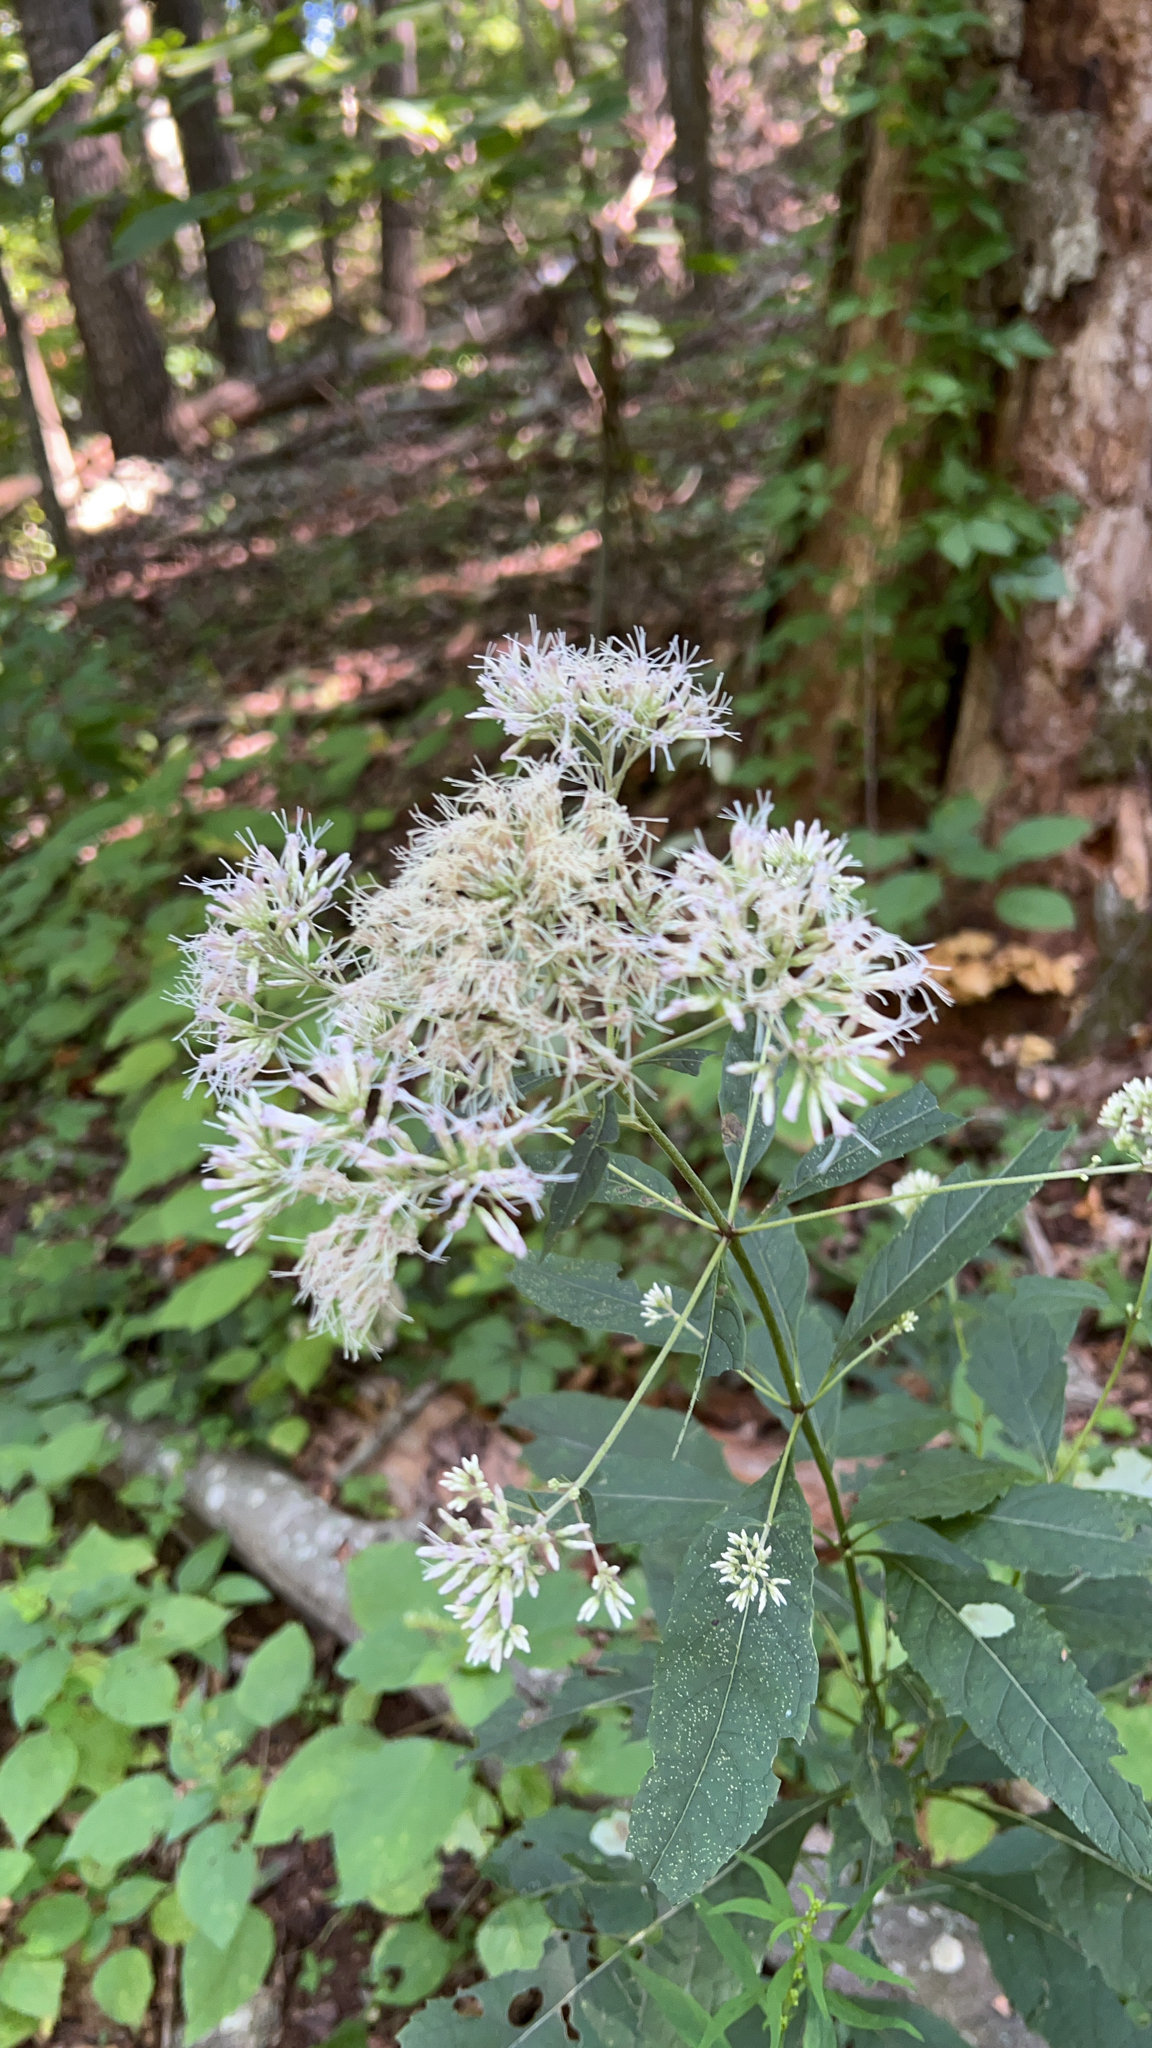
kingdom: Plantae
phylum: Tracheophyta
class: Magnoliopsida
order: Asterales
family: Asteraceae
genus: Eutrochium
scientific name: Eutrochium purpureum
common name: Gravelroot
